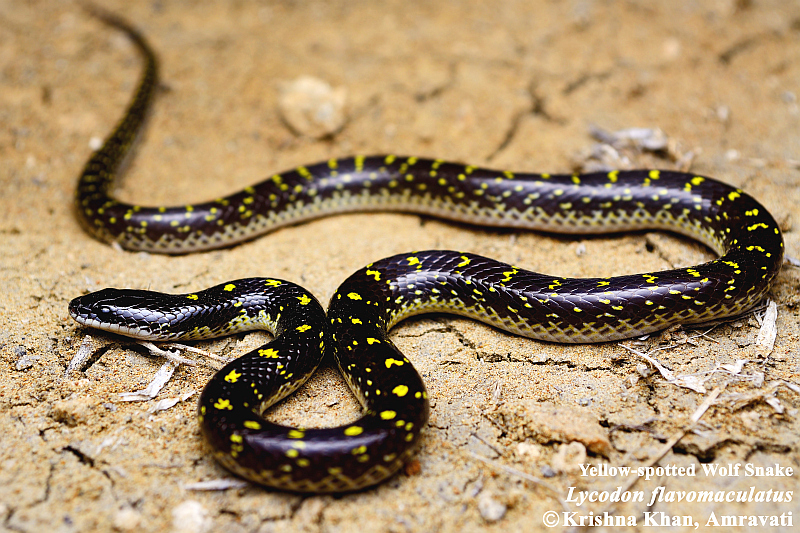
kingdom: Animalia
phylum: Chordata
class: Squamata
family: Colubridae
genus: Lycodon
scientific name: Lycodon flavomaculatus
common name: Yellow-spotted wolf snake
